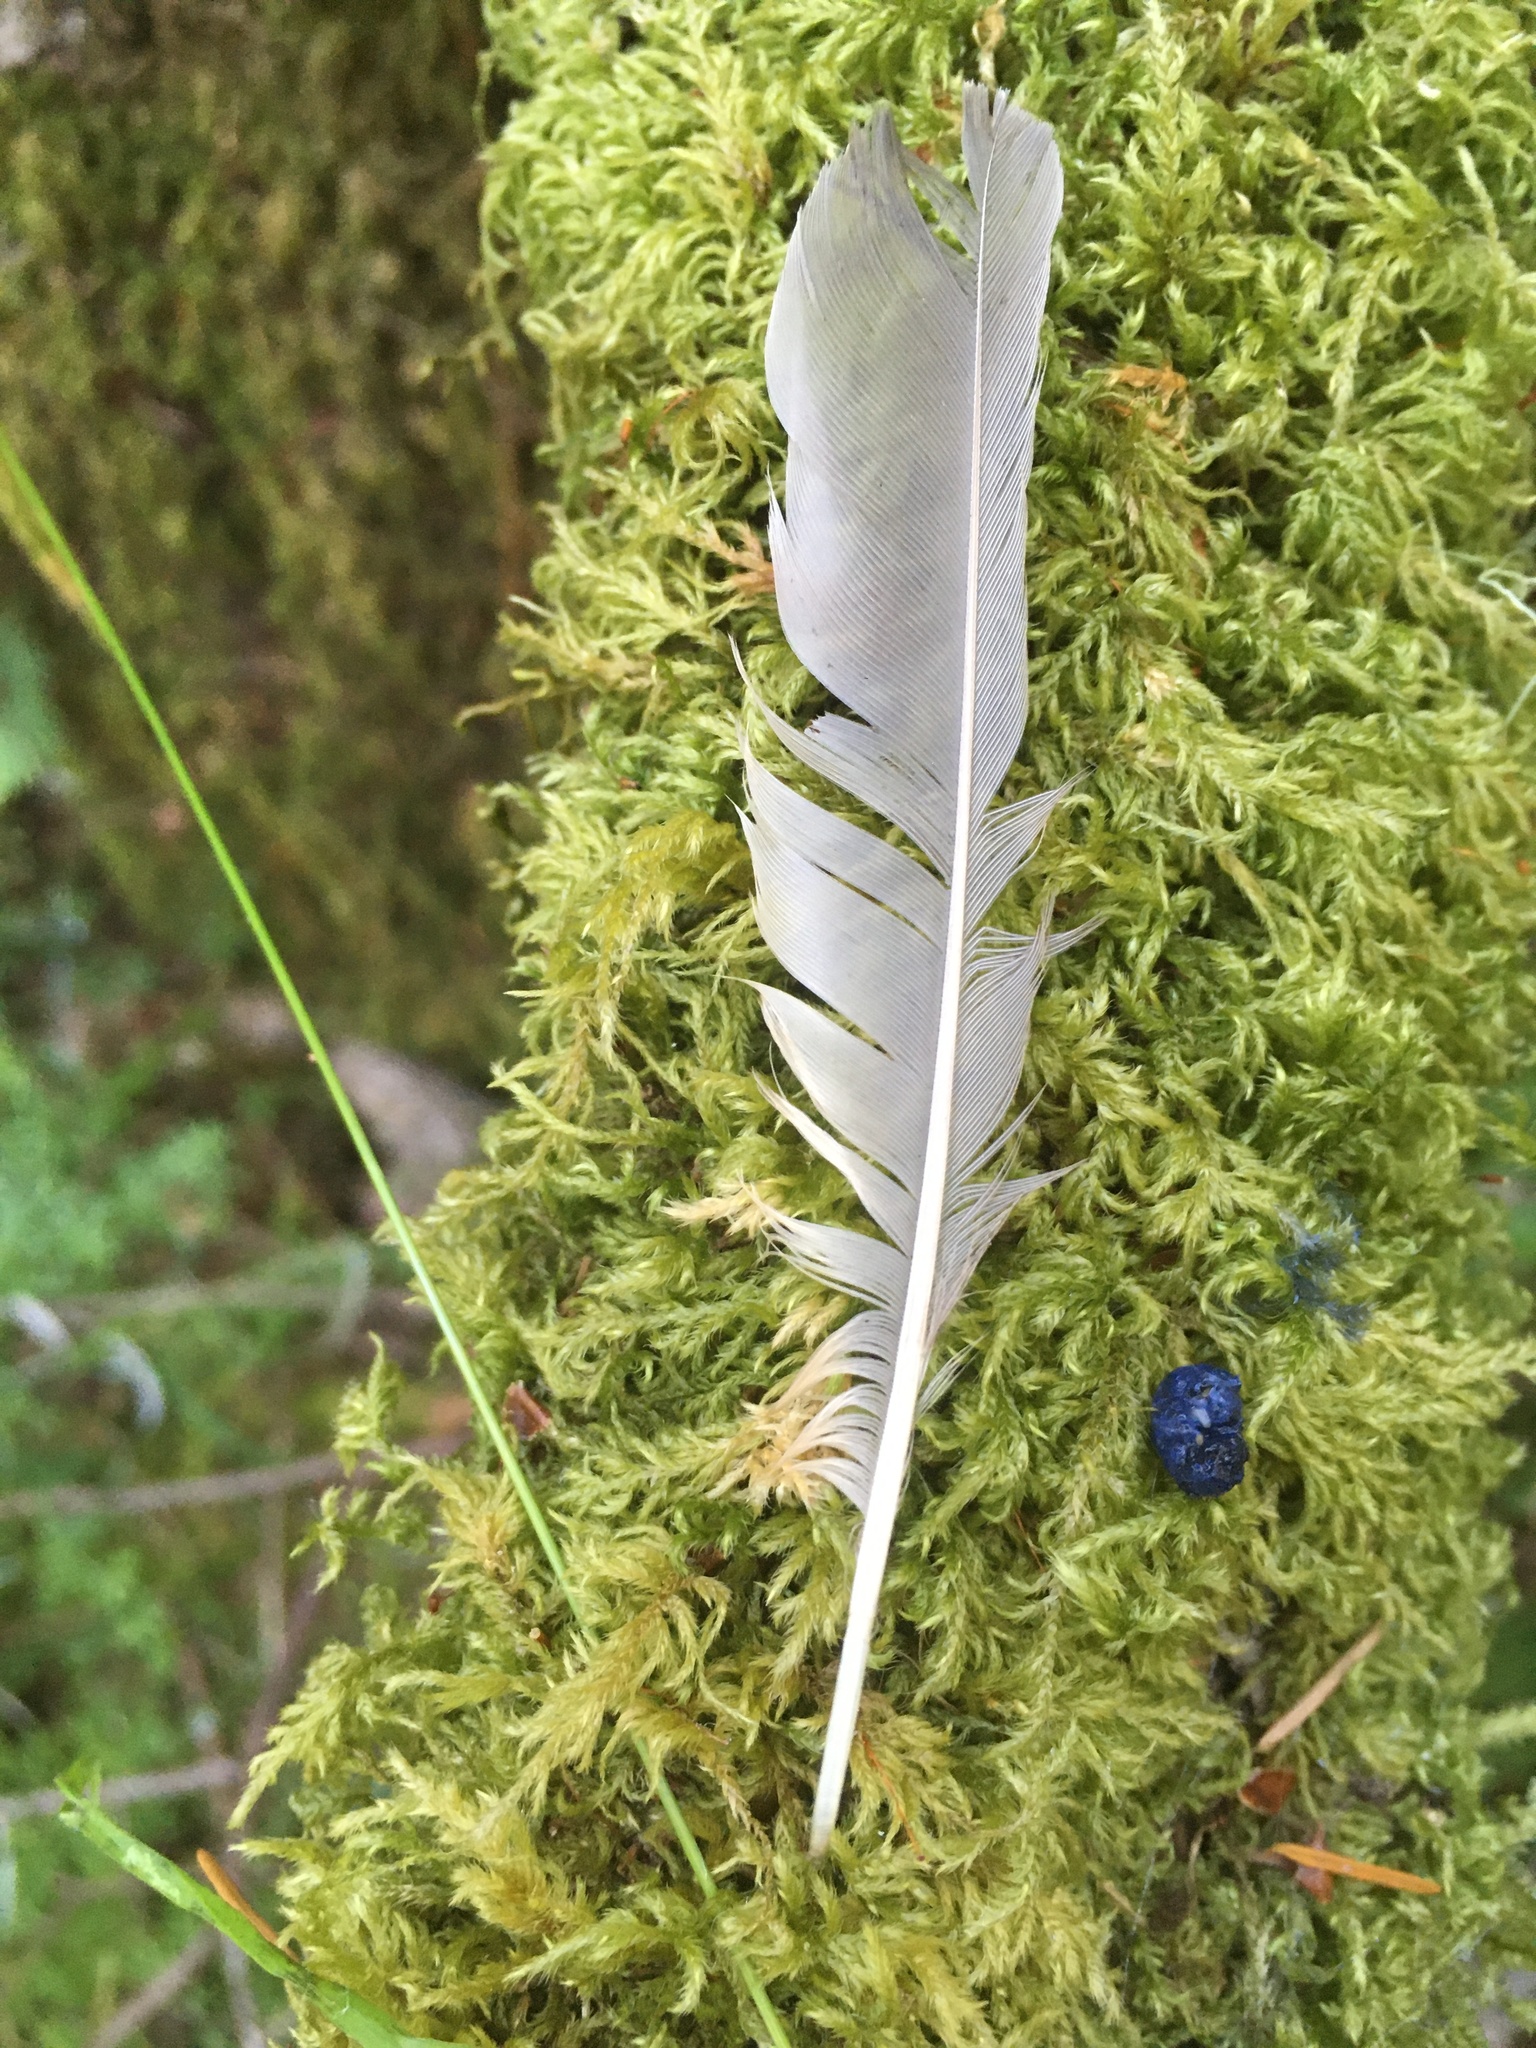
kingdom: Animalia
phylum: Chordata
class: Aves
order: Passeriformes
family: Turdidae
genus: Turdus
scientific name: Turdus migratorius
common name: American robin
